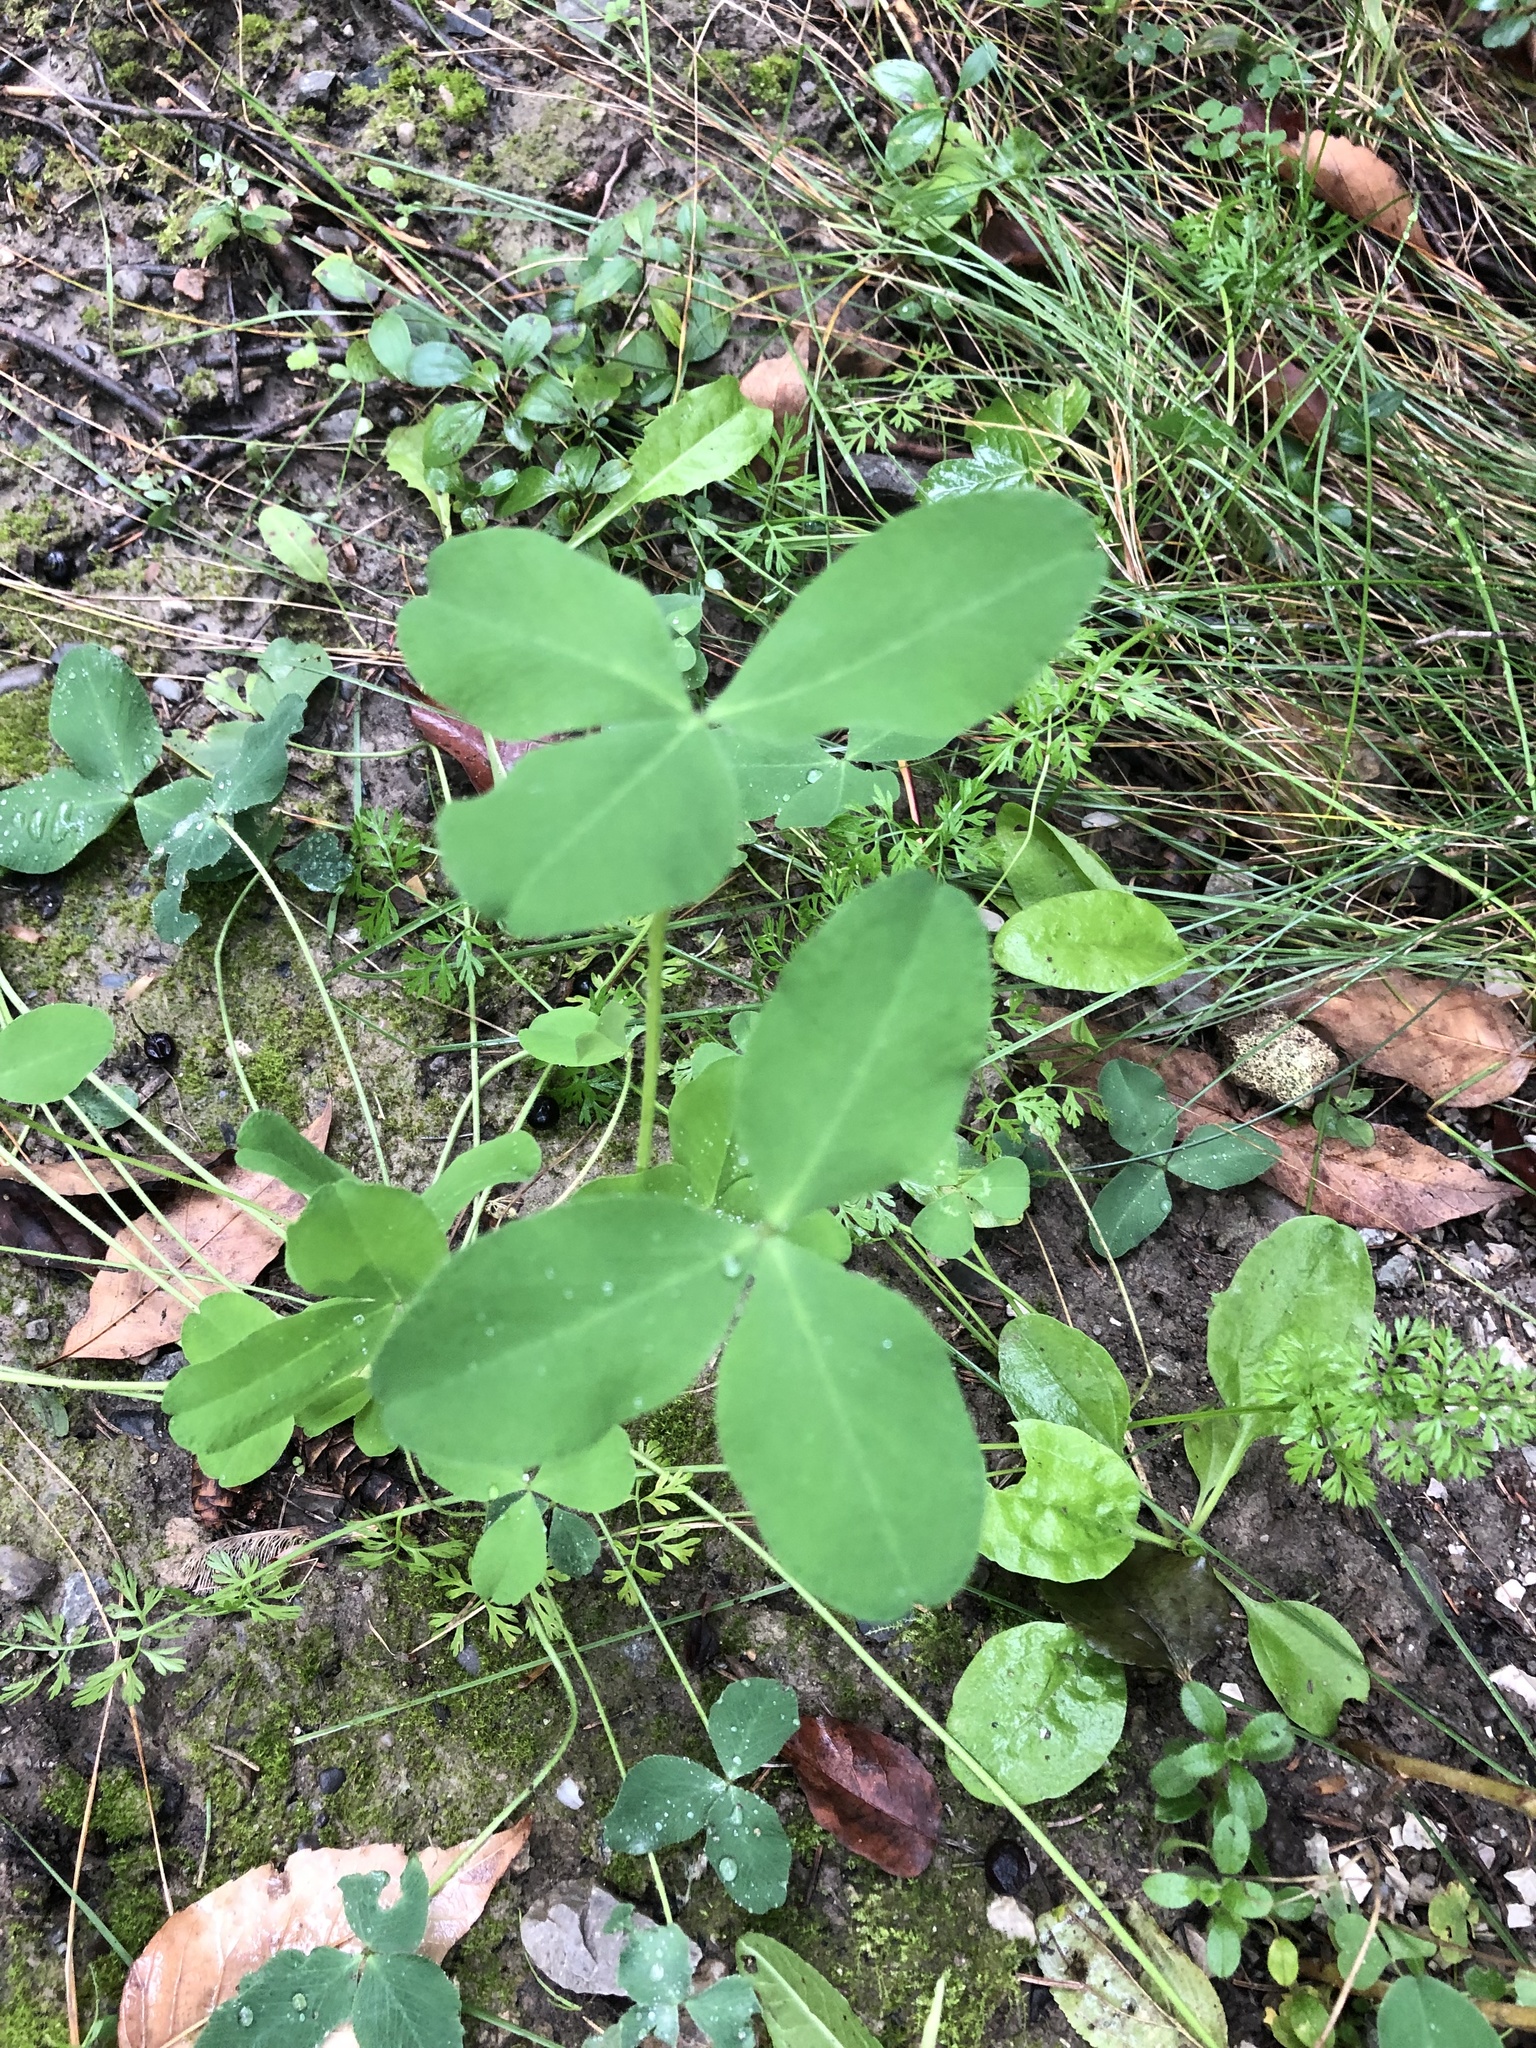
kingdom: Plantae
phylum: Tracheophyta
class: Magnoliopsida
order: Fabales
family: Fabaceae
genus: Trifolium
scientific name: Trifolium pratense
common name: Red clover
